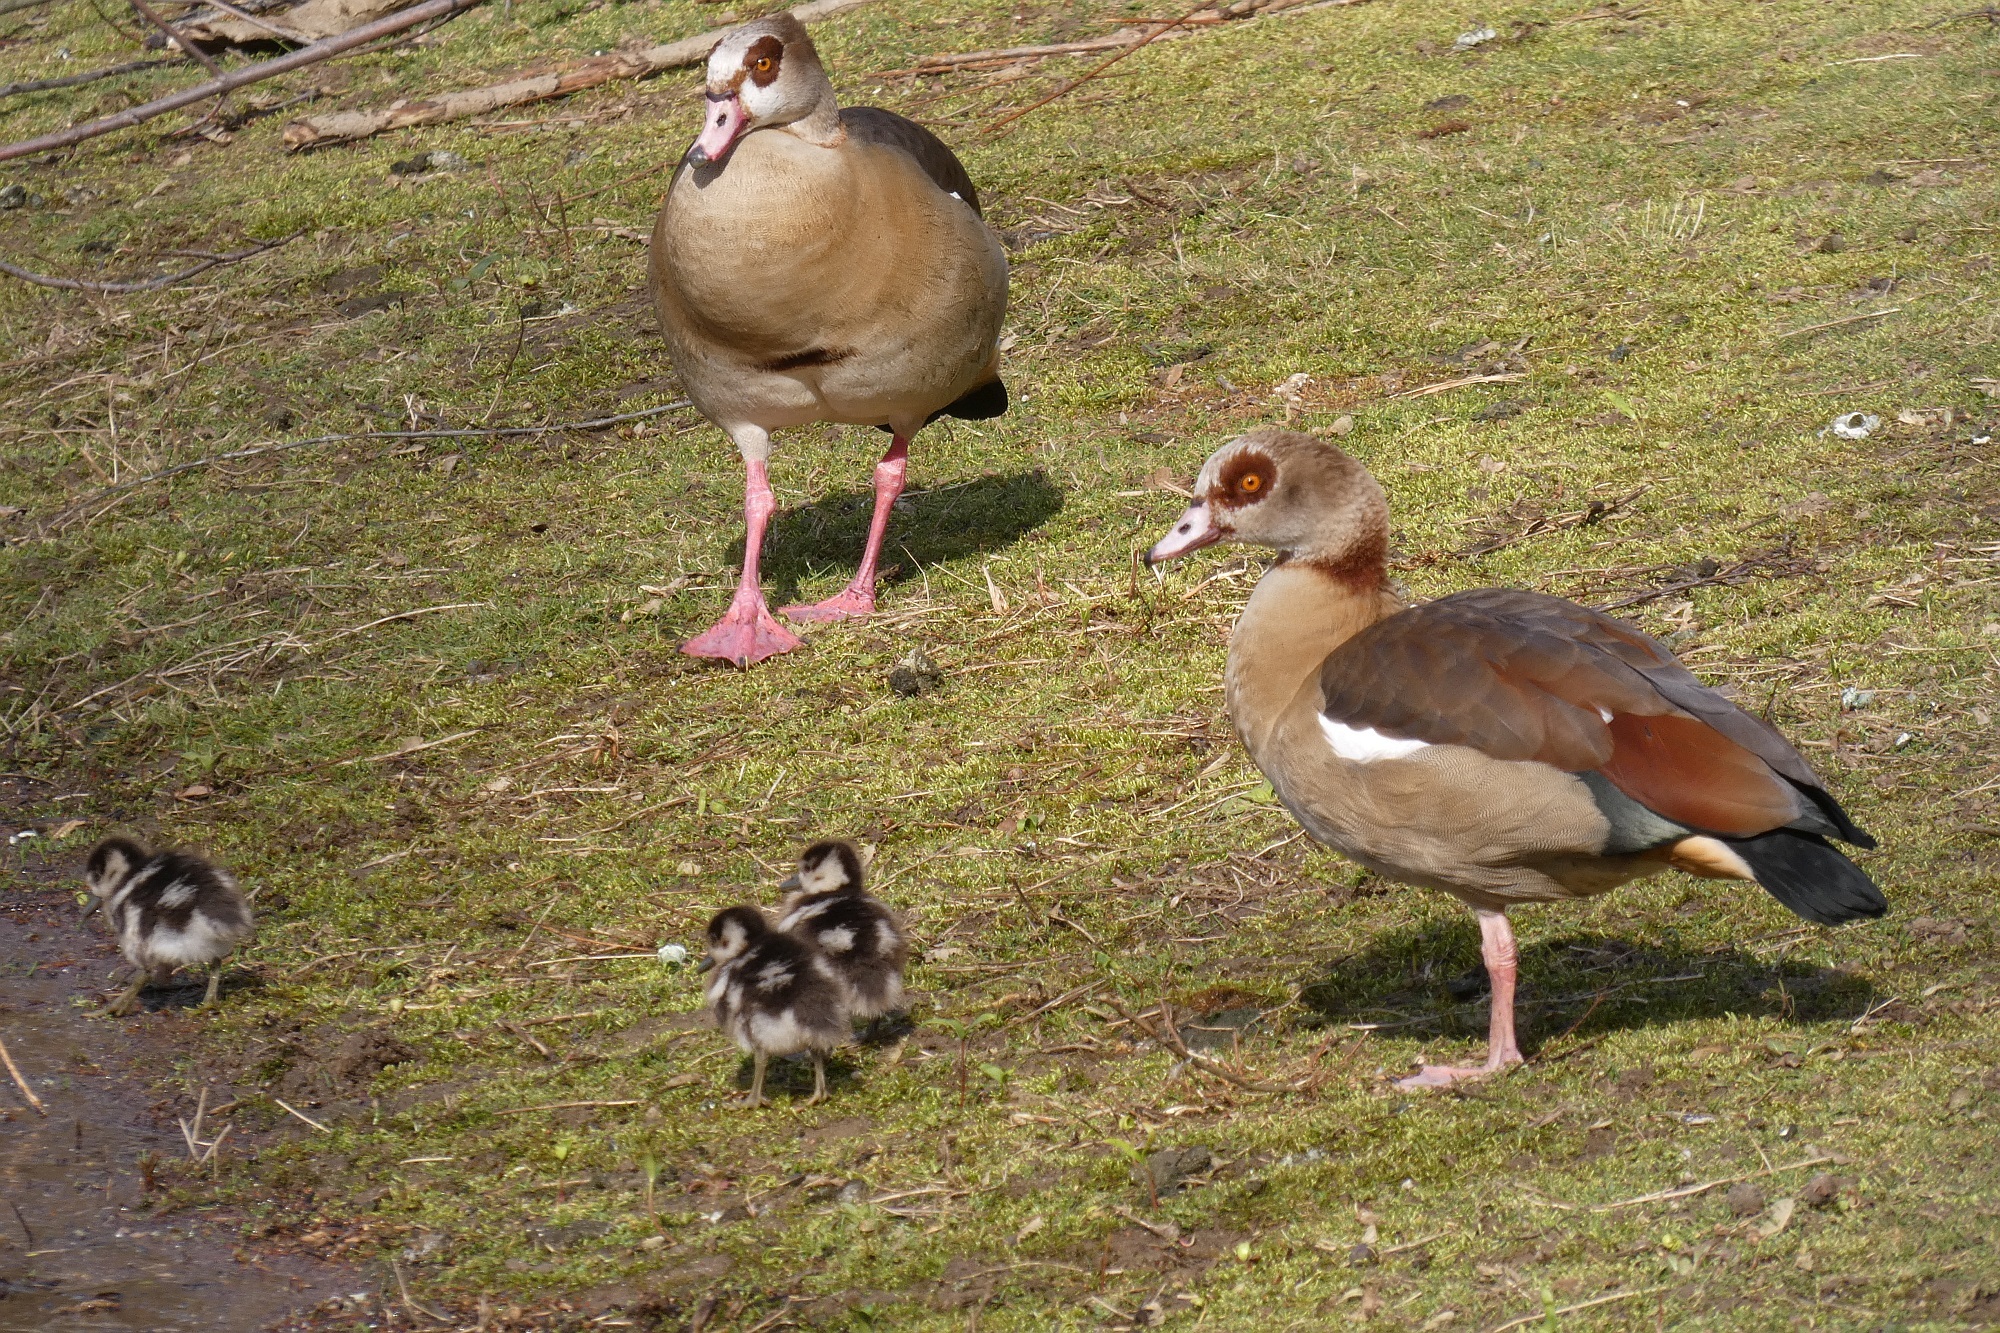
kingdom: Animalia
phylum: Chordata
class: Aves
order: Anseriformes
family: Anatidae
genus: Alopochen
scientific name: Alopochen aegyptiaca
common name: Egyptian goose
